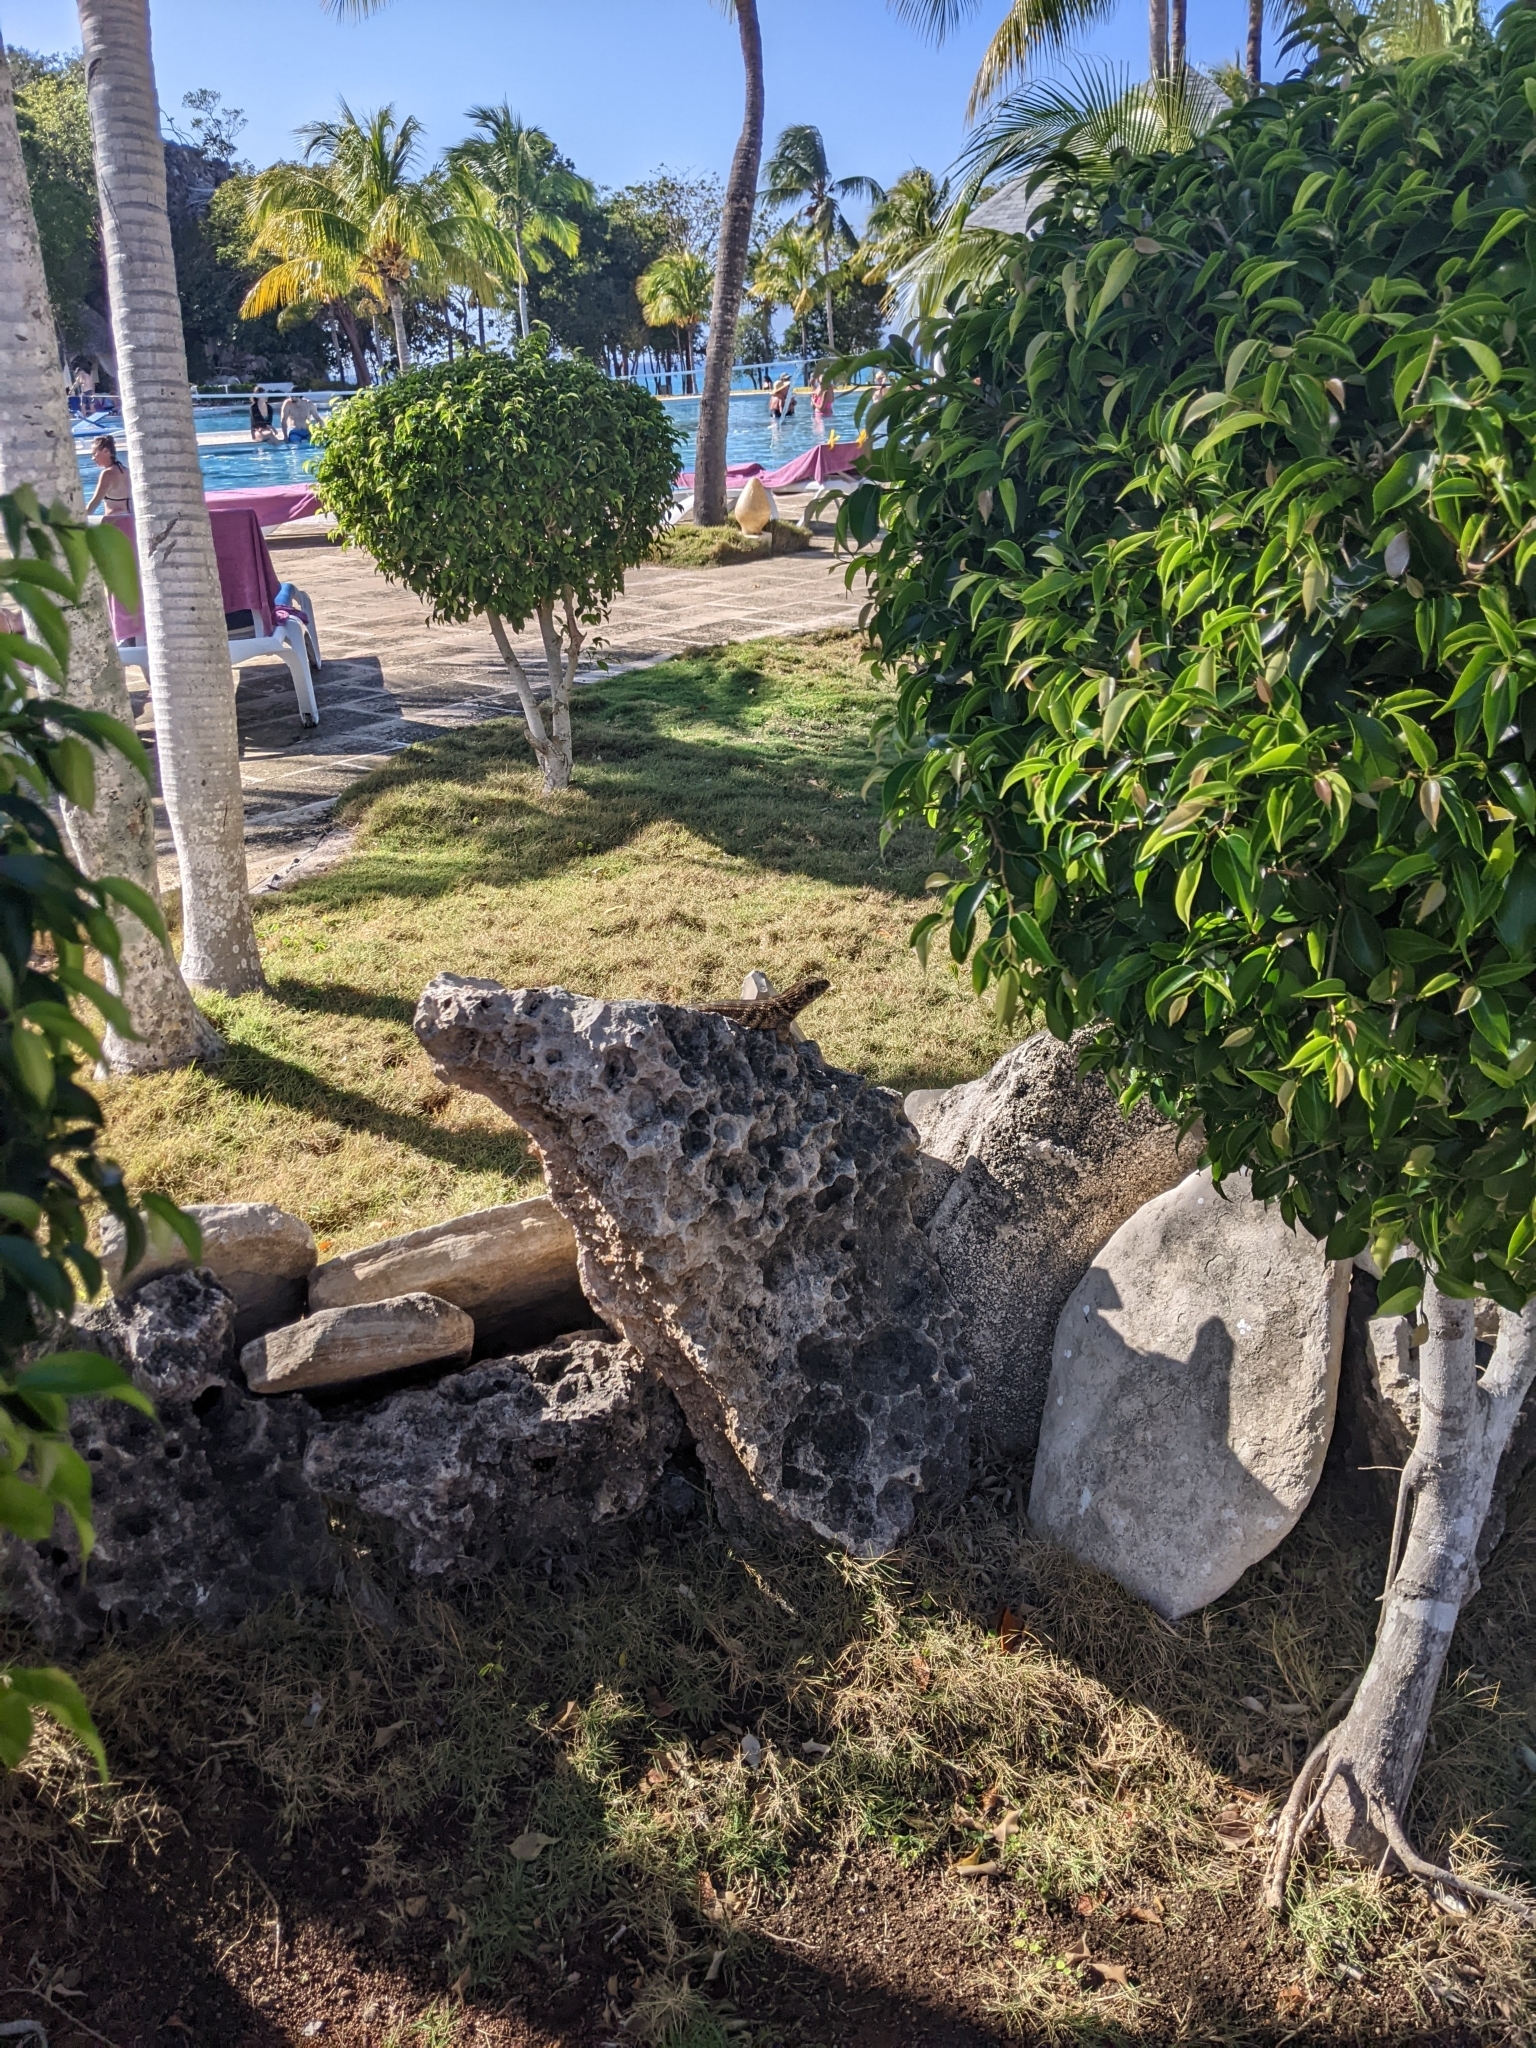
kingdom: Animalia
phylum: Chordata
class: Squamata
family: Leiocephalidae
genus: Leiocephalus
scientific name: Leiocephalus carinatus
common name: Northern curly-tailed lizard
